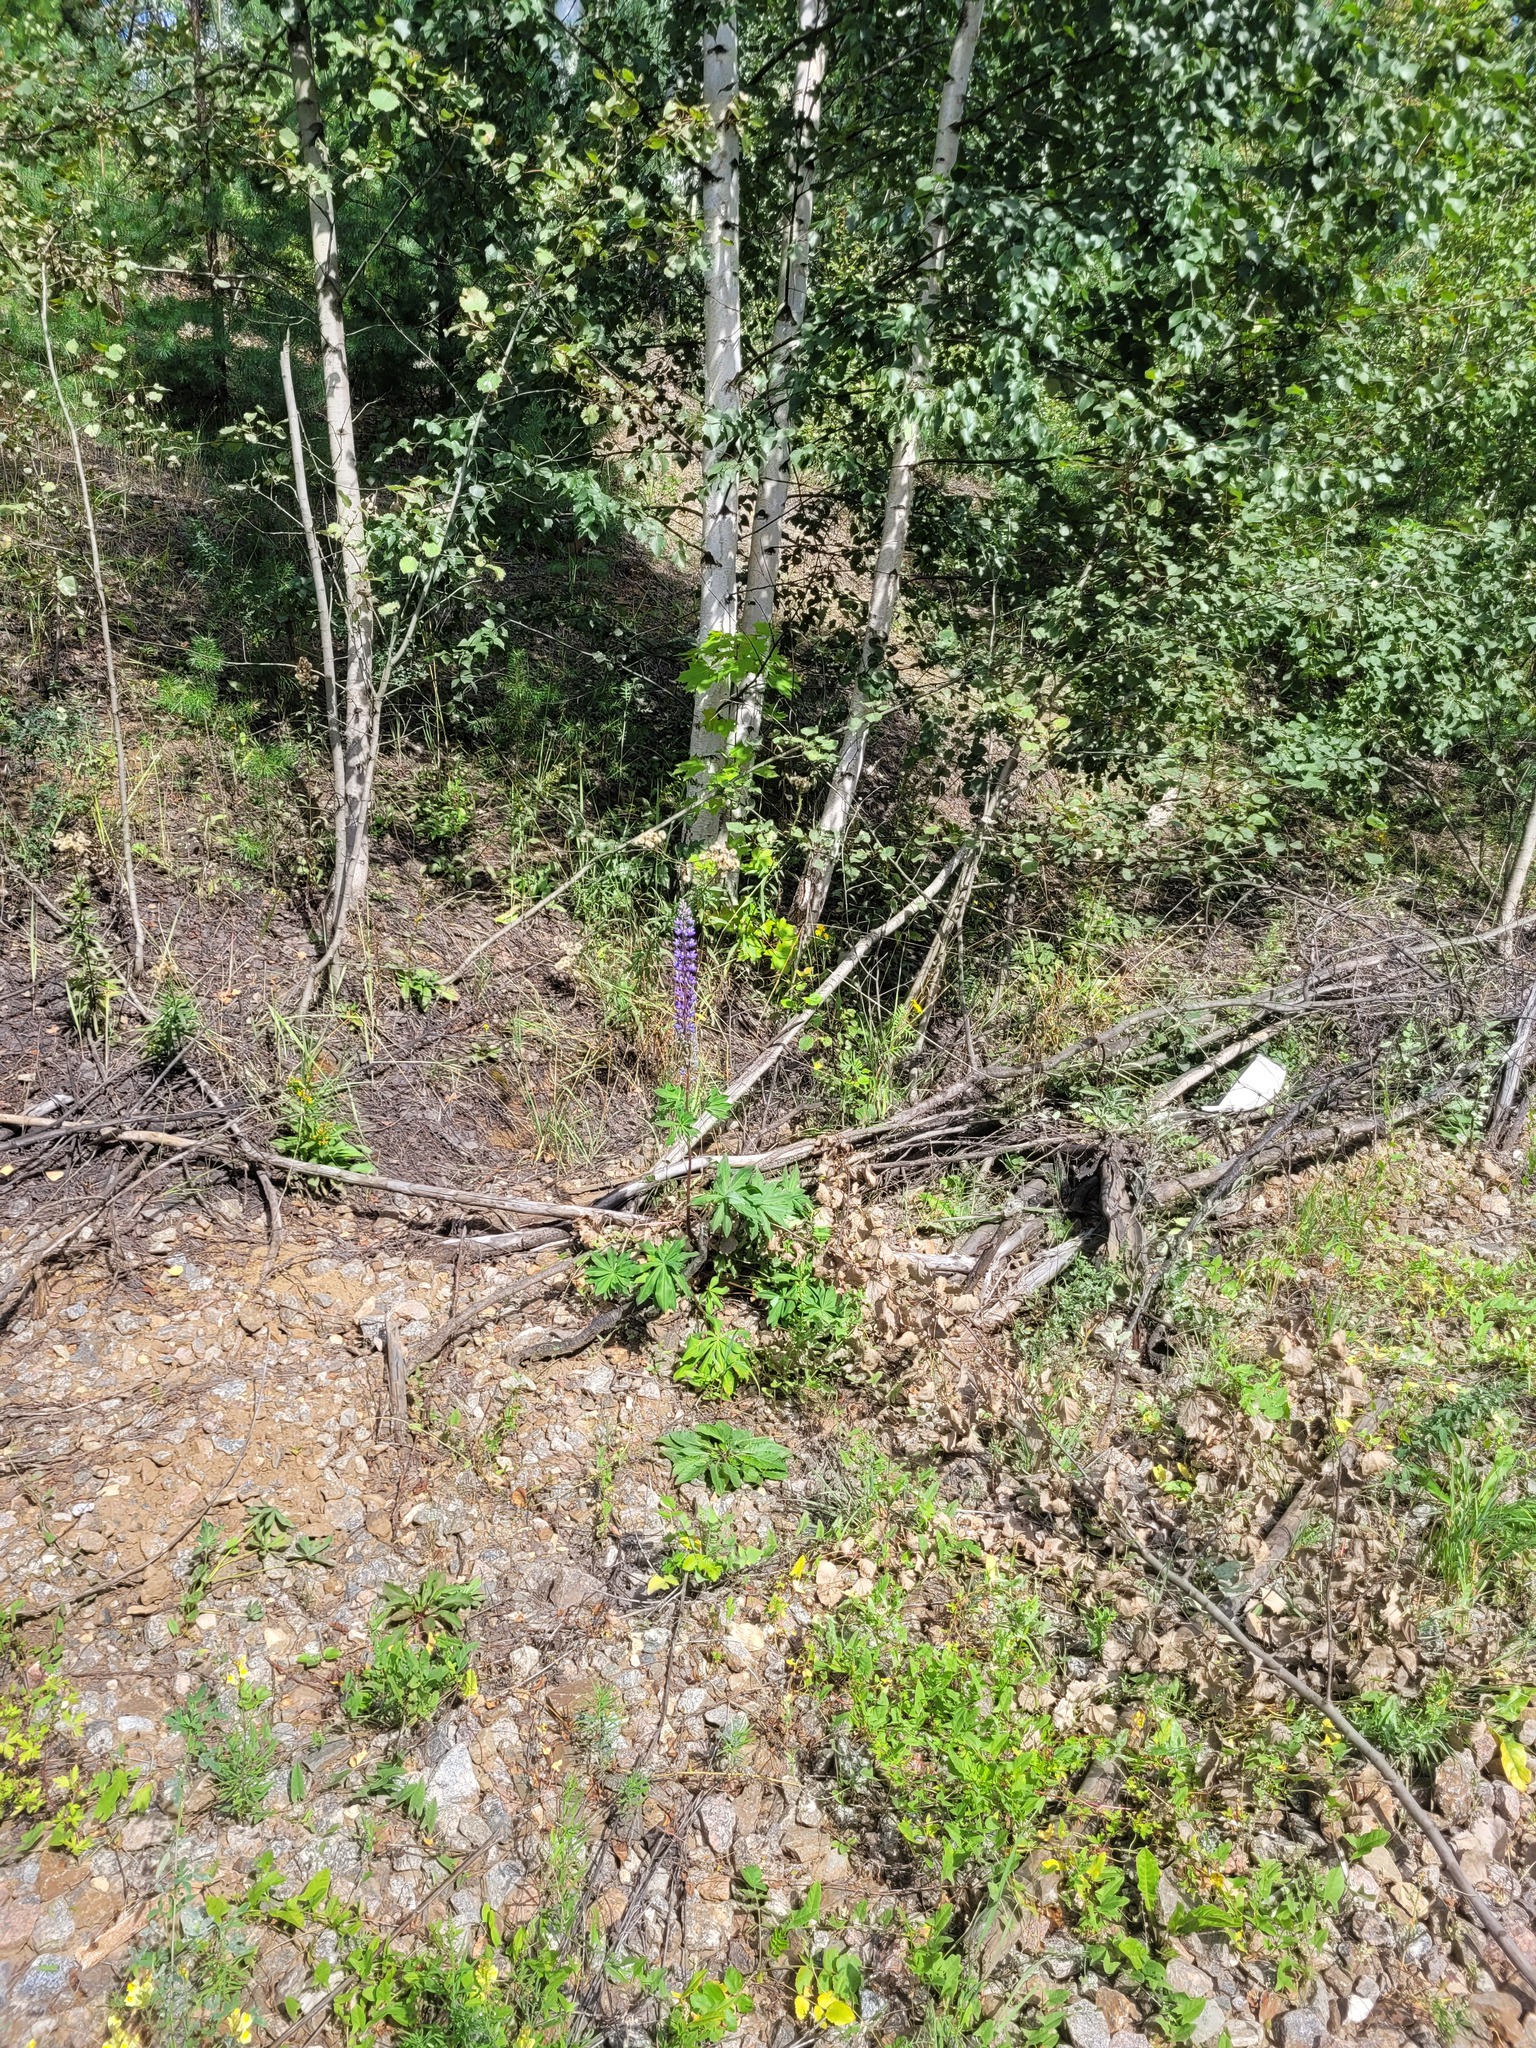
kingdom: Plantae
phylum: Tracheophyta
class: Magnoliopsida
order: Fabales
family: Fabaceae
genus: Lupinus
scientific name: Lupinus polyphyllus
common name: Garden lupin
